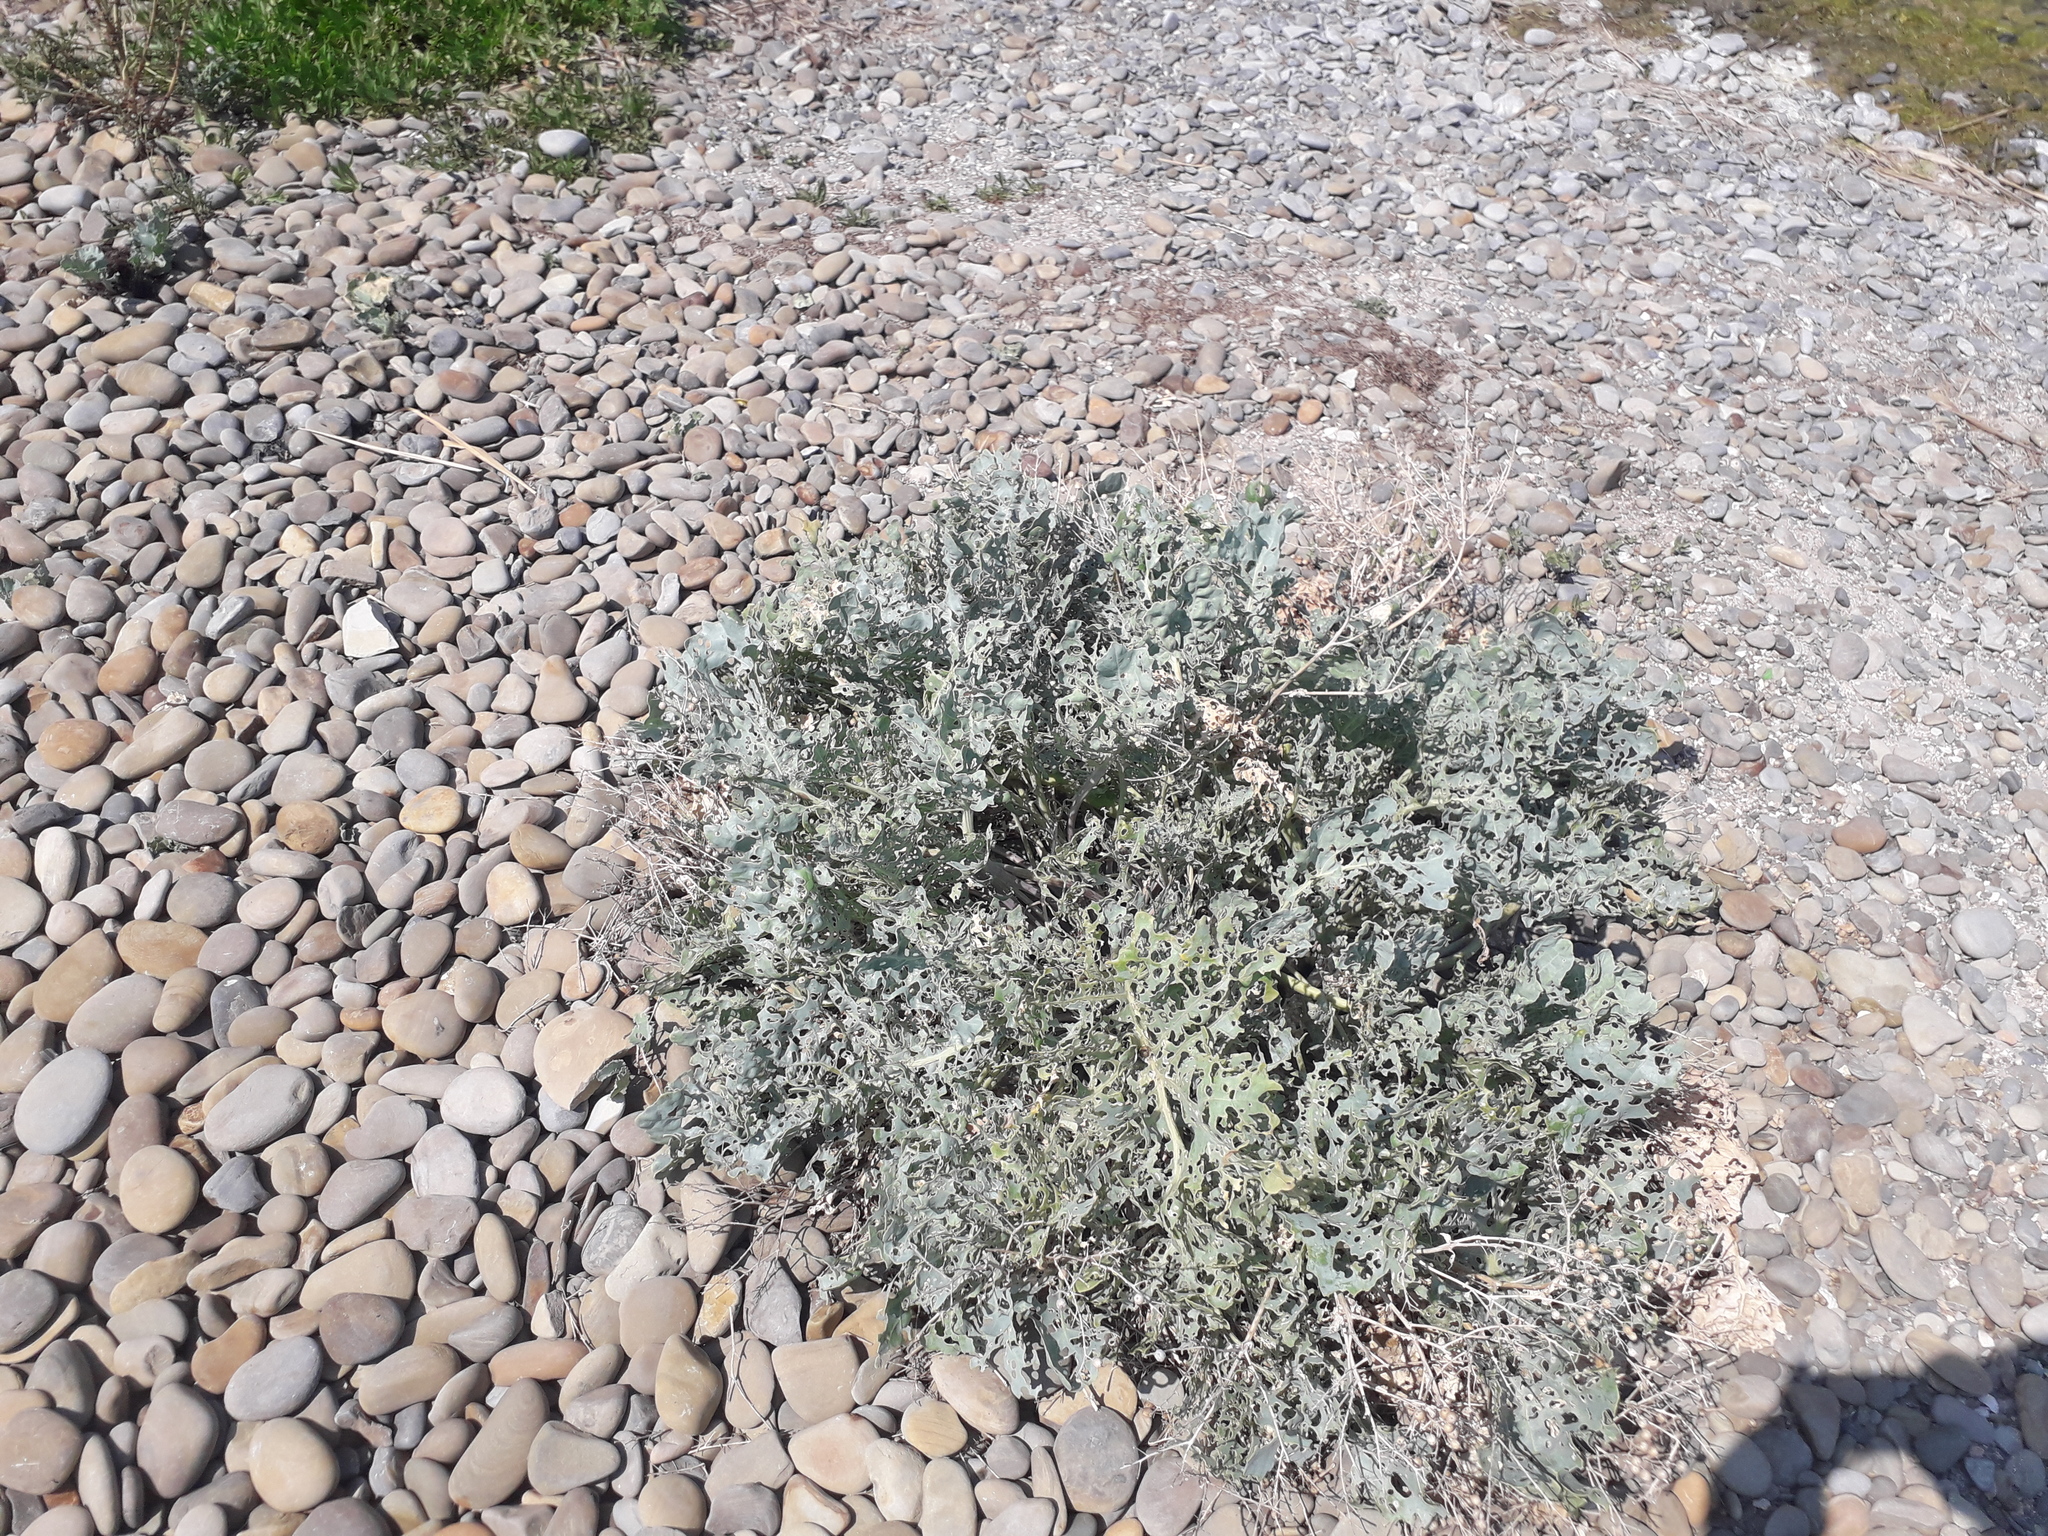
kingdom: Plantae
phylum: Tracheophyta
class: Magnoliopsida
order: Brassicales
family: Brassicaceae
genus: Crambe
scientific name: Crambe maritima
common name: Sea-kale
